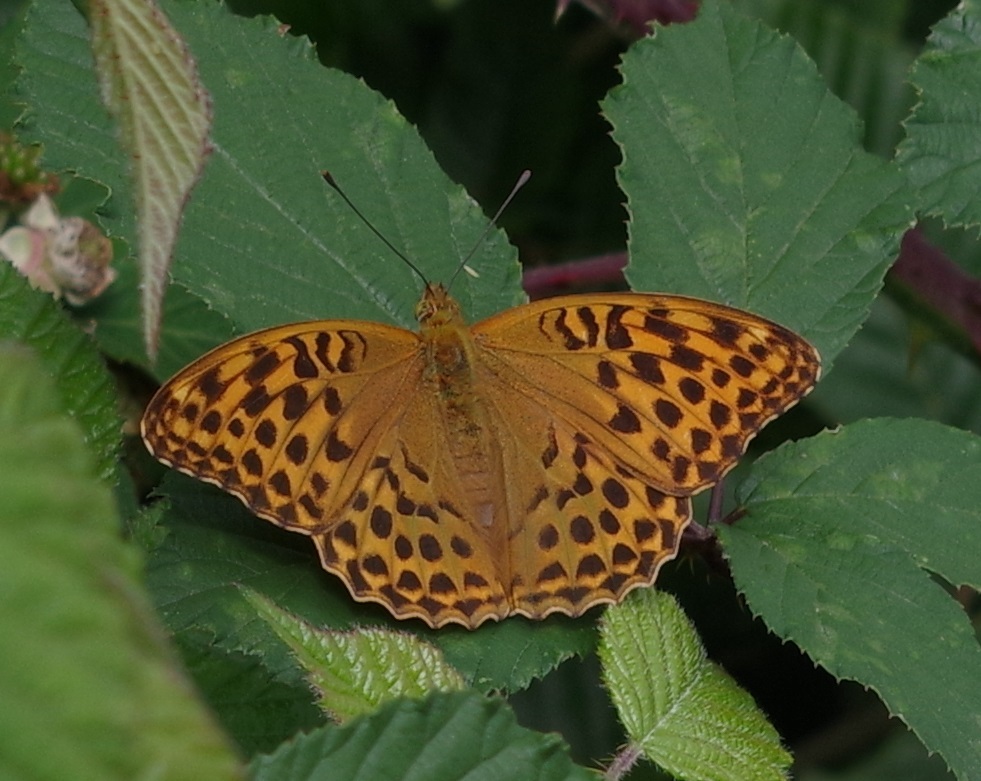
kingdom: Animalia
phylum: Arthropoda
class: Insecta
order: Lepidoptera
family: Nymphalidae
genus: Argynnis
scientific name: Argynnis paphia
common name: Silver-washed fritillary
